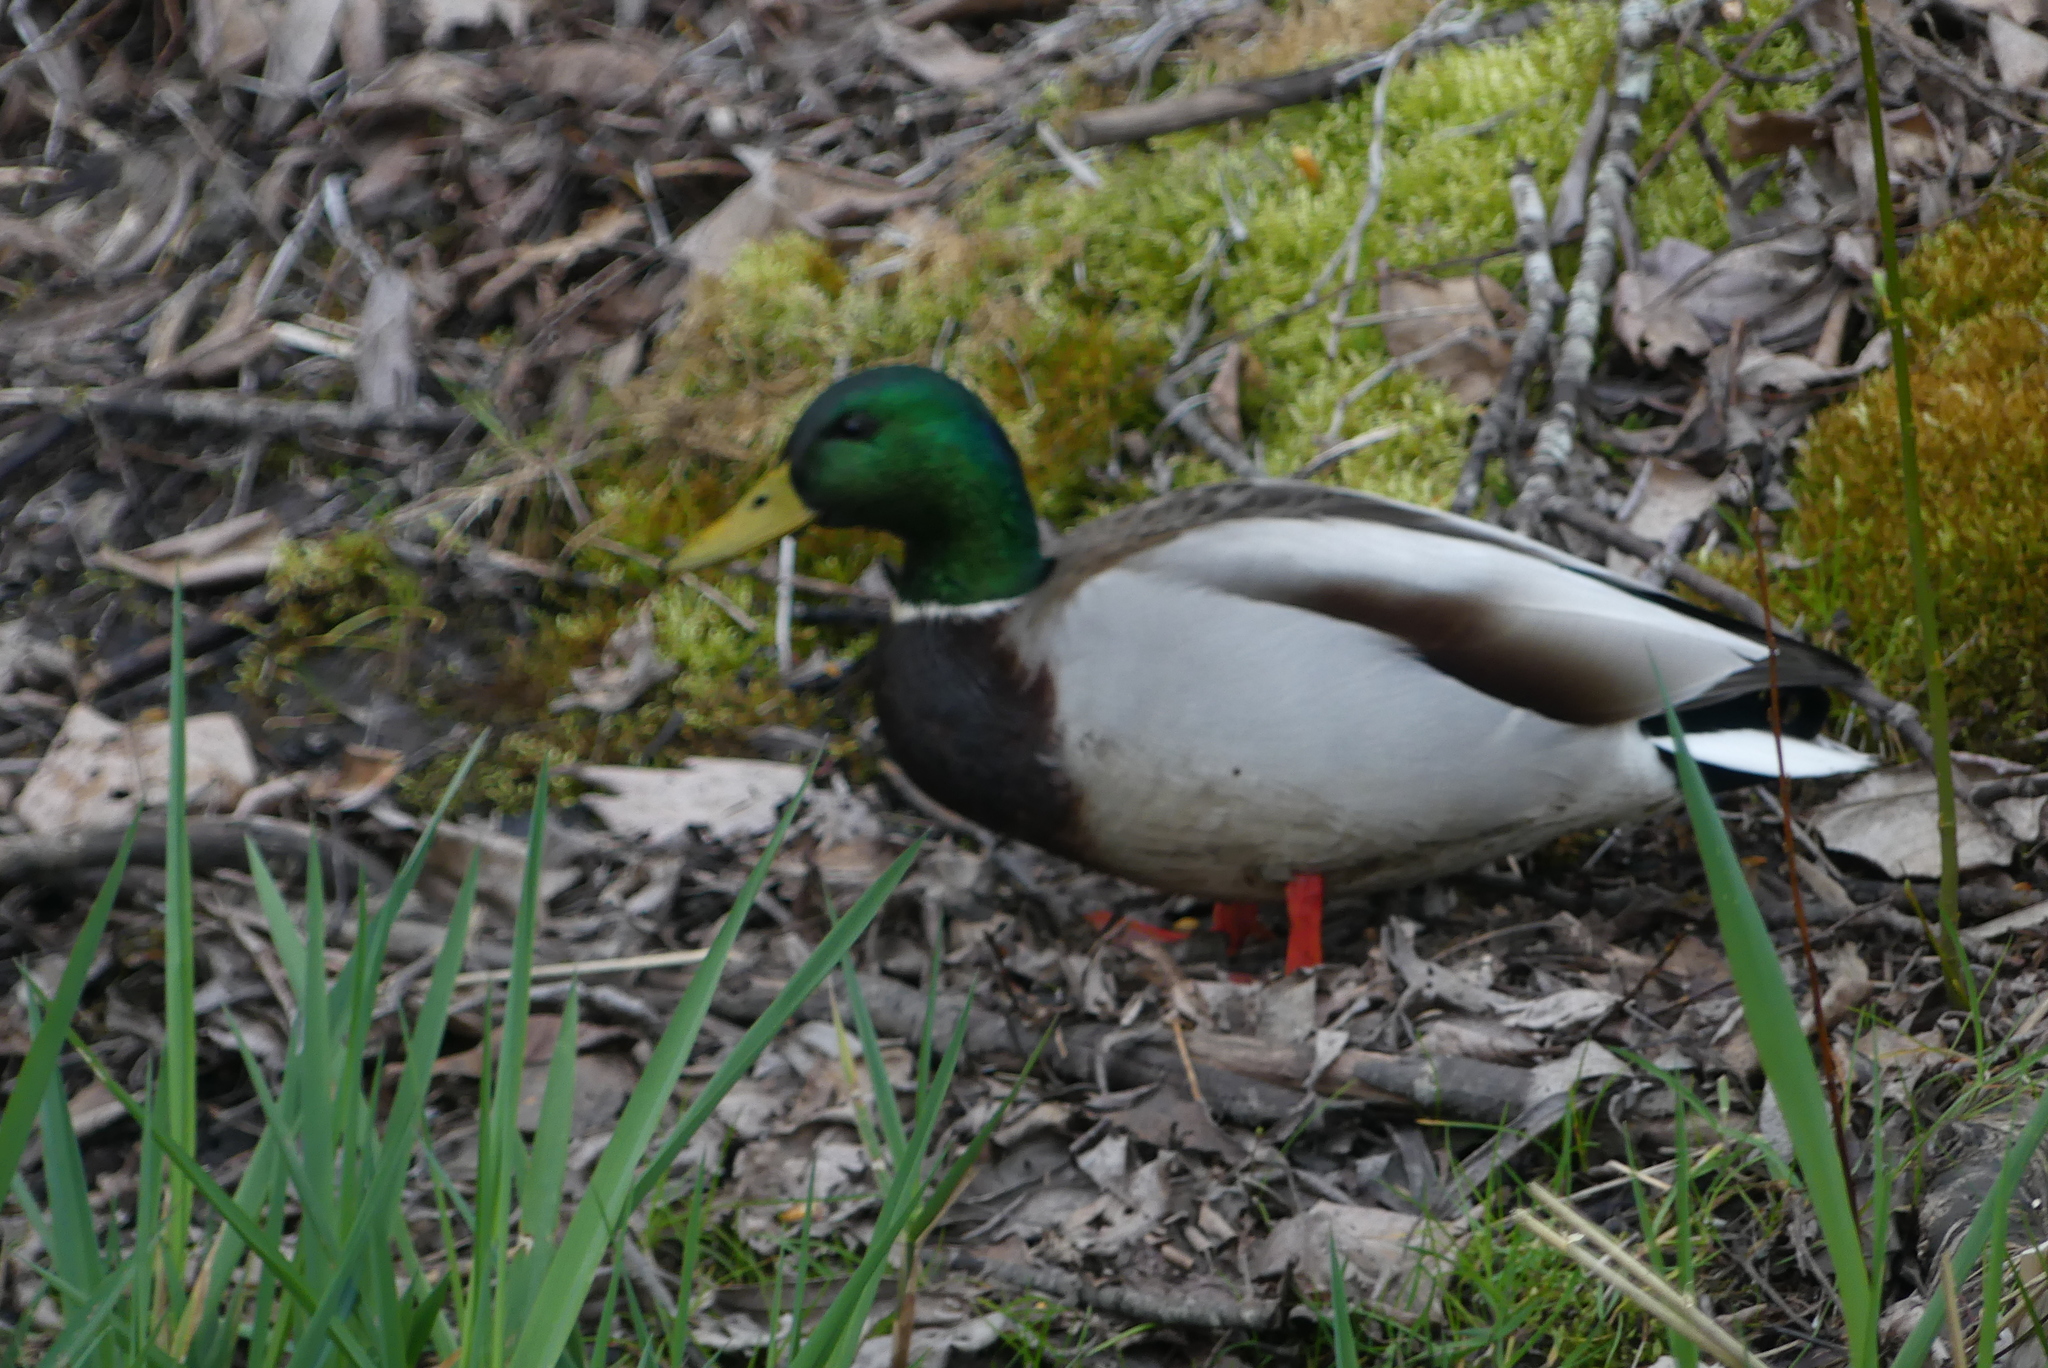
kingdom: Animalia
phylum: Chordata
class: Aves
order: Anseriformes
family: Anatidae
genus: Anas
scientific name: Anas platyrhynchos
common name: Mallard
